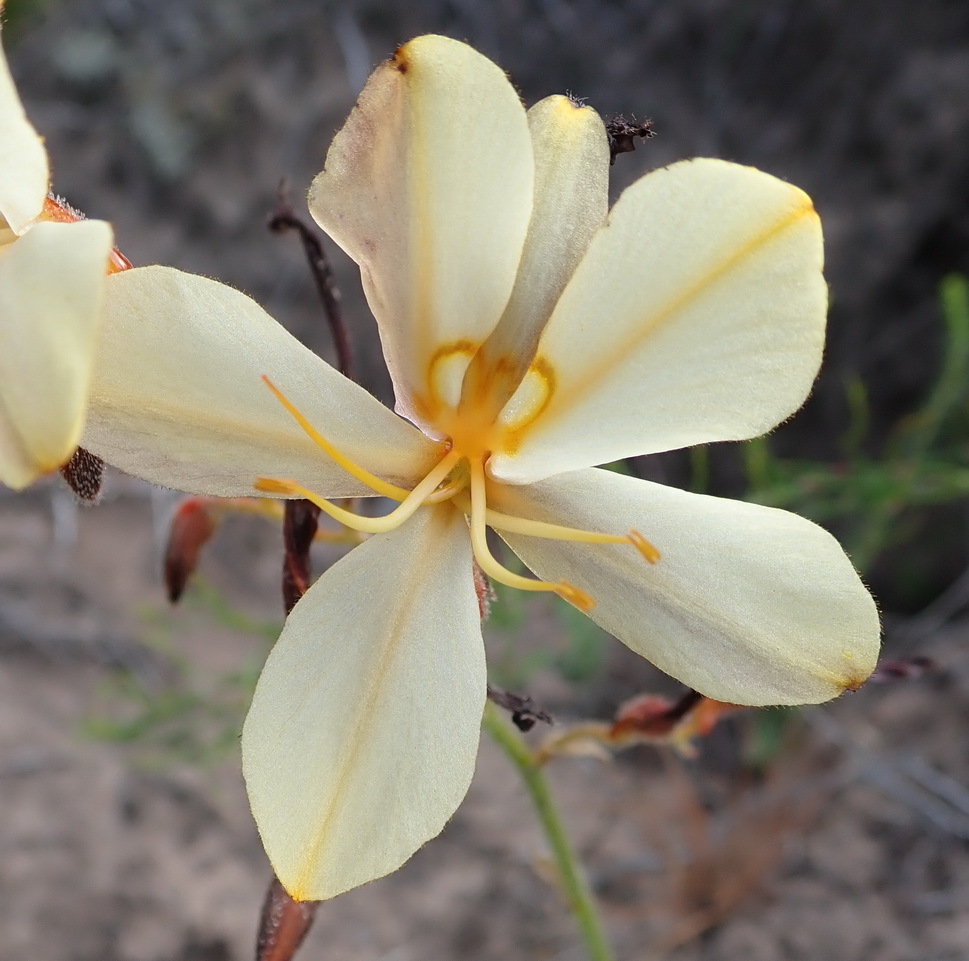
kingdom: Plantae
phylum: Tracheophyta
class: Liliopsida
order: Commelinales
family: Haemodoraceae
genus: Wachendorfia
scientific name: Wachendorfia paniculata
